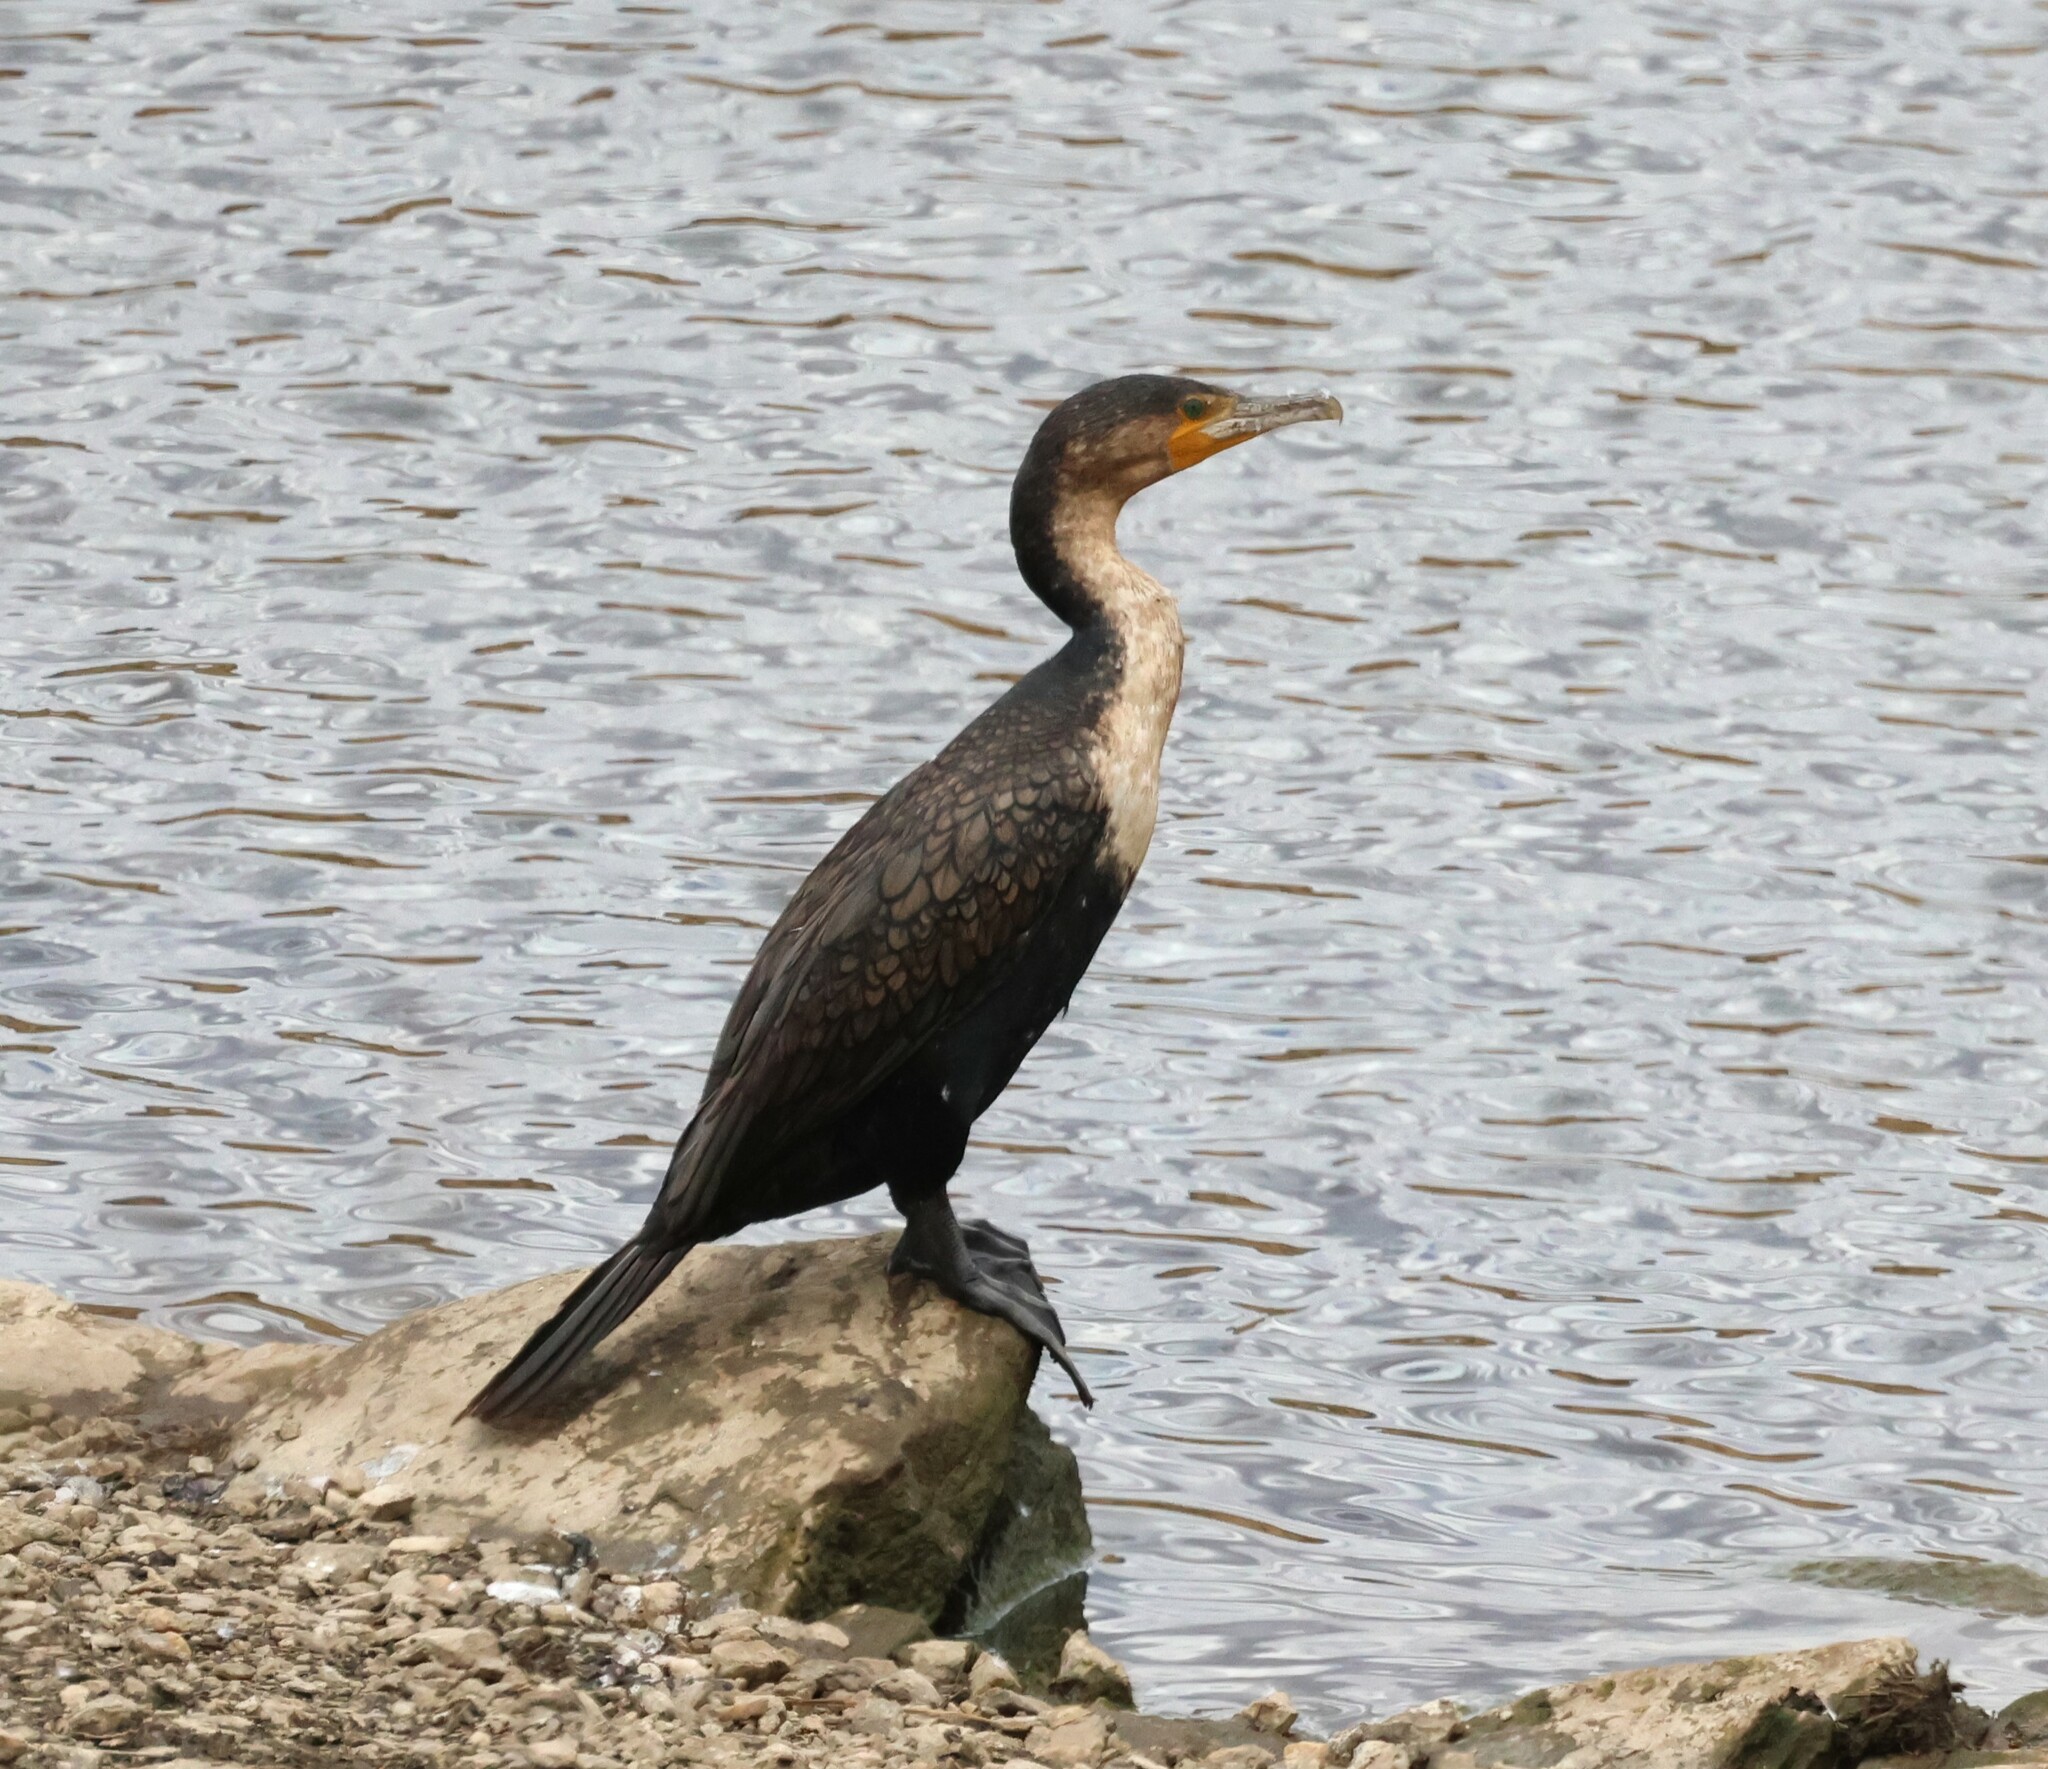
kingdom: Animalia
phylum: Chordata
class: Aves
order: Suliformes
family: Phalacrocoracidae
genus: Phalacrocorax
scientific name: Phalacrocorax carbo
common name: Great cormorant
